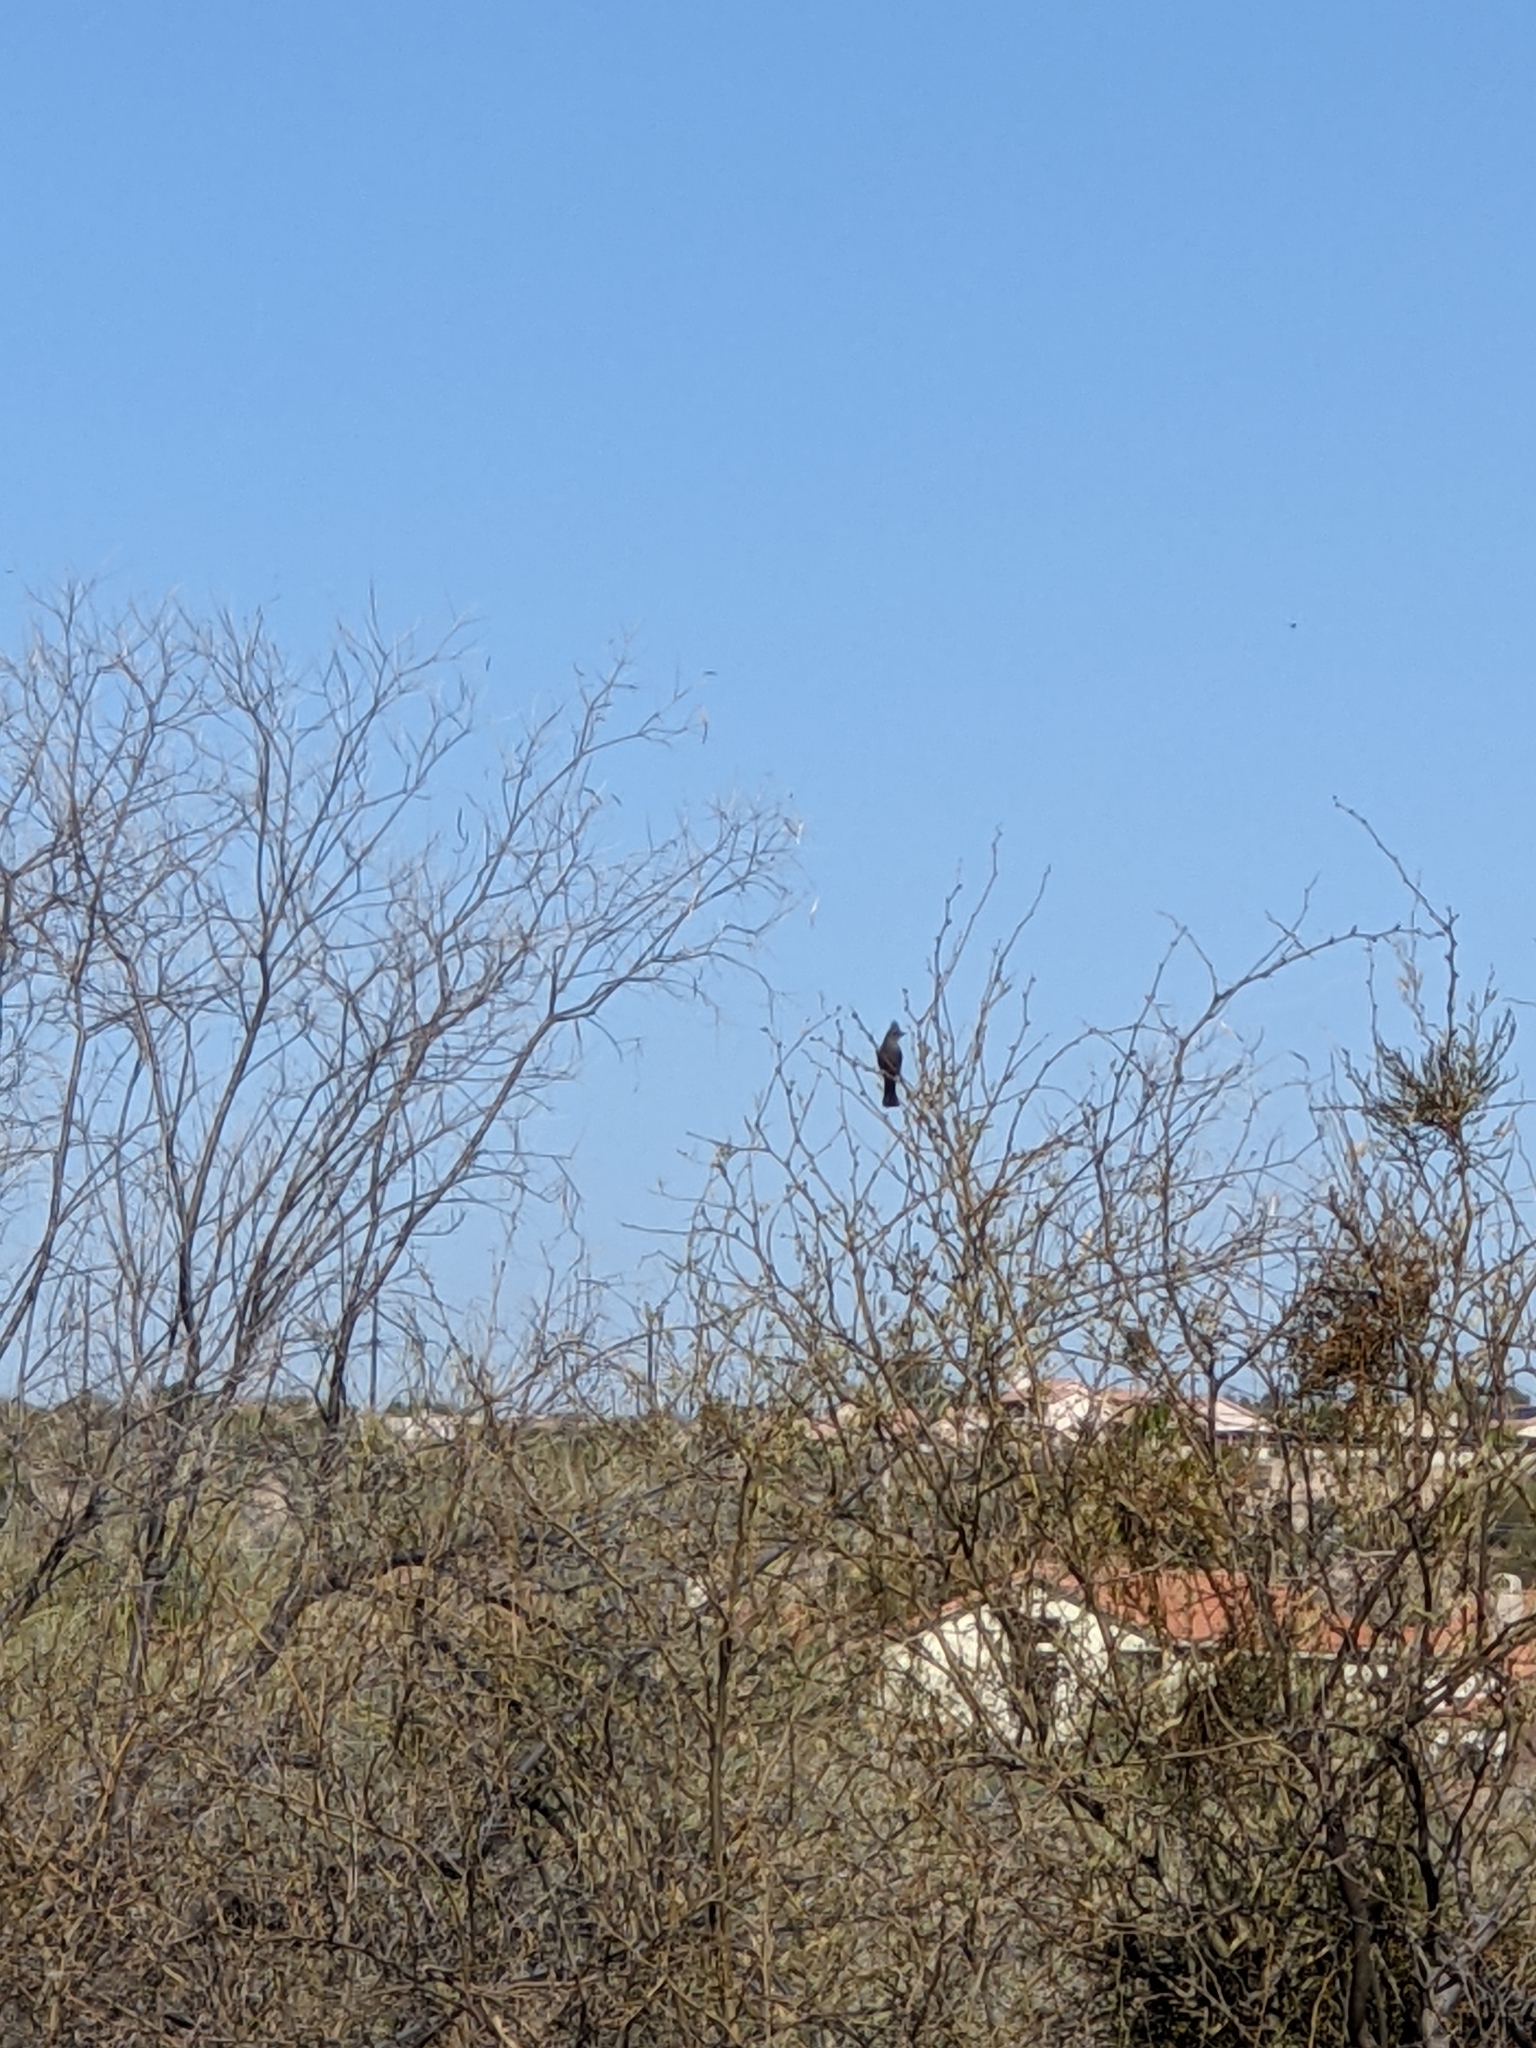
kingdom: Animalia
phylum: Chordata
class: Aves
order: Passeriformes
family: Ptilogonatidae
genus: Phainopepla
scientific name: Phainopepla nitens
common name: Phainopepla
